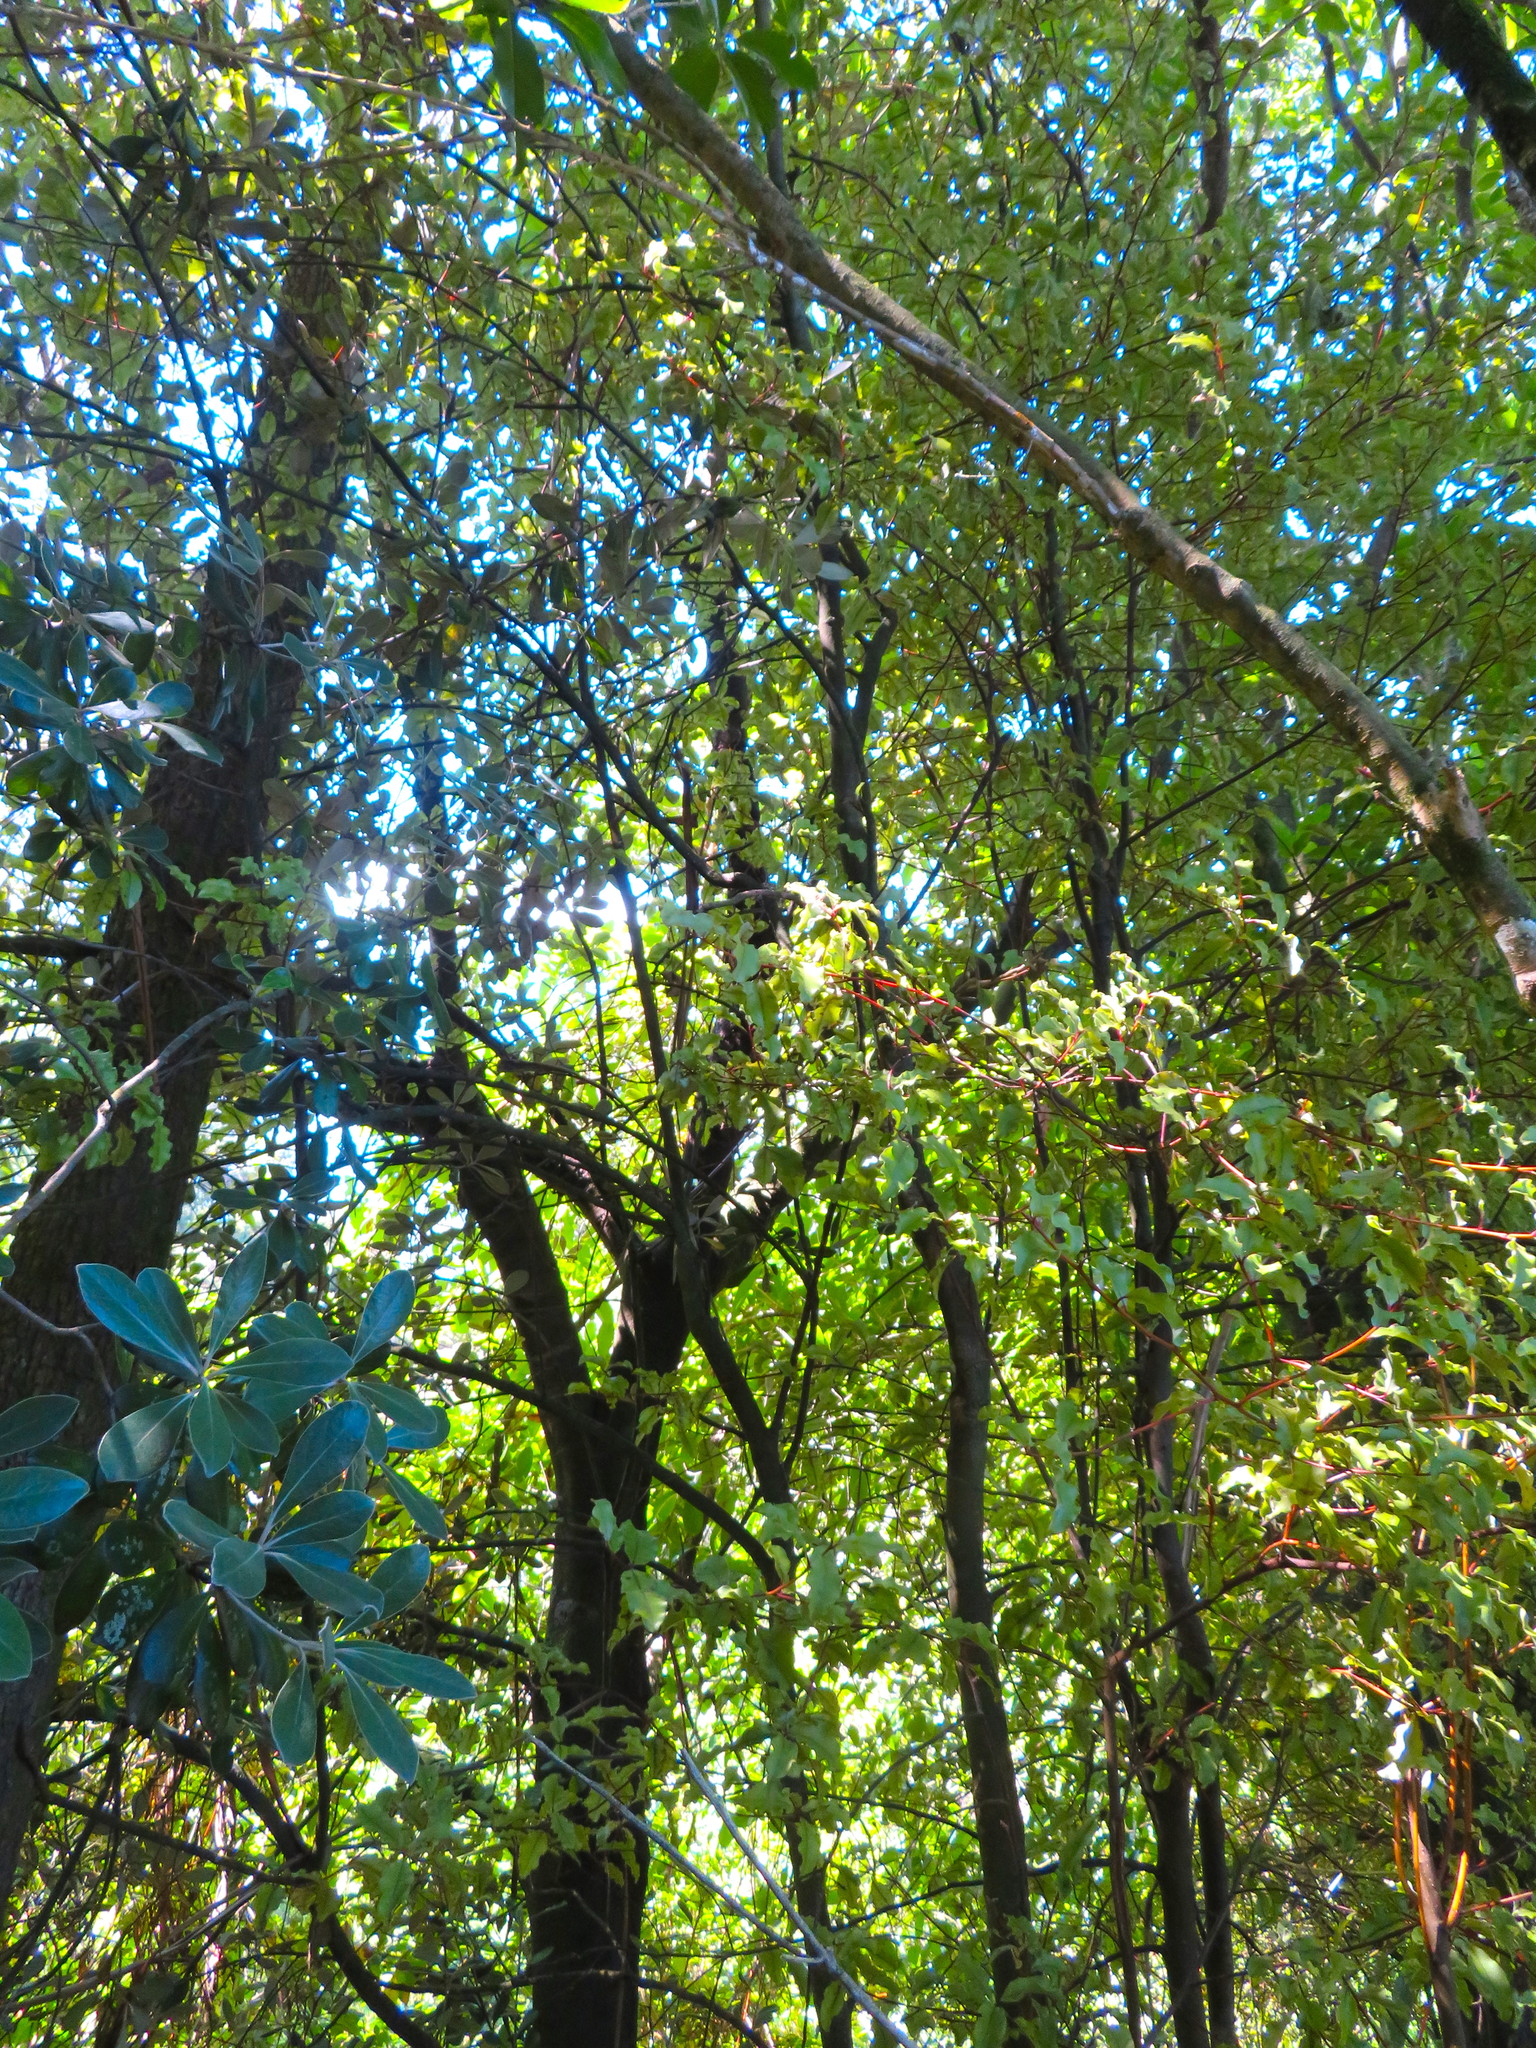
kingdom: Plantae
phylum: Tracheophyta
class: Magnoliopsida
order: Ericales
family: Primulaceae
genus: Myrsine
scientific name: Myrsine australis
